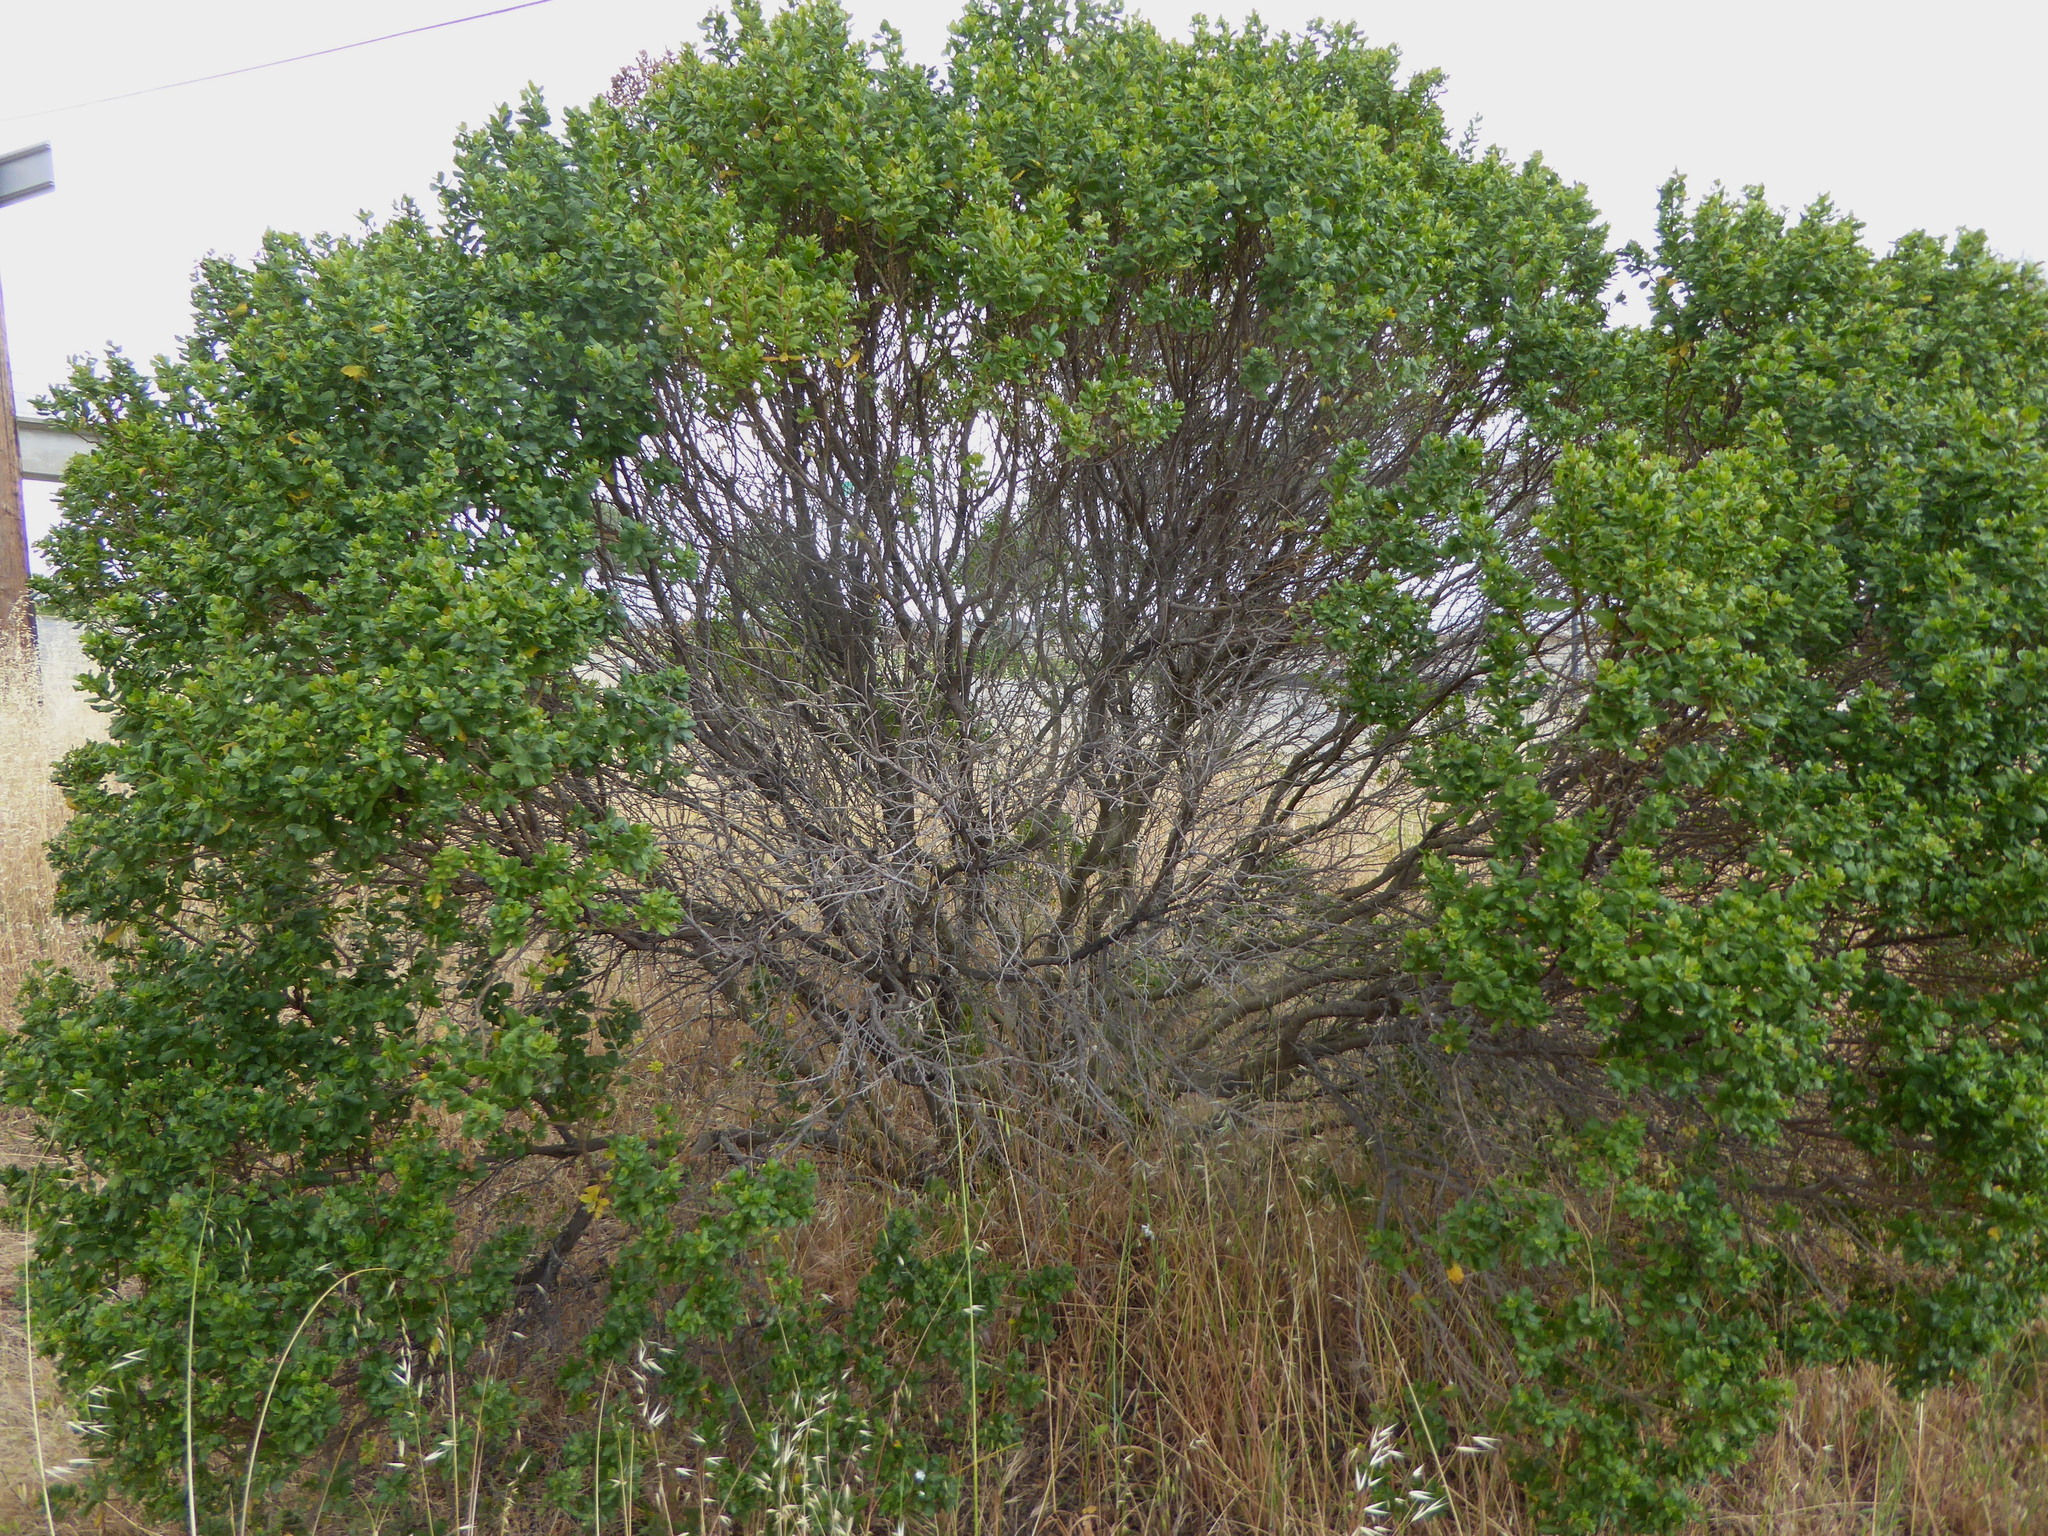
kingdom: Plantae
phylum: Tracheophyta
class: Magnoliopsida
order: Asterales
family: Asteraceae
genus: Baccharis
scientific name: Baccharis pilularis
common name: Coyotebrush
